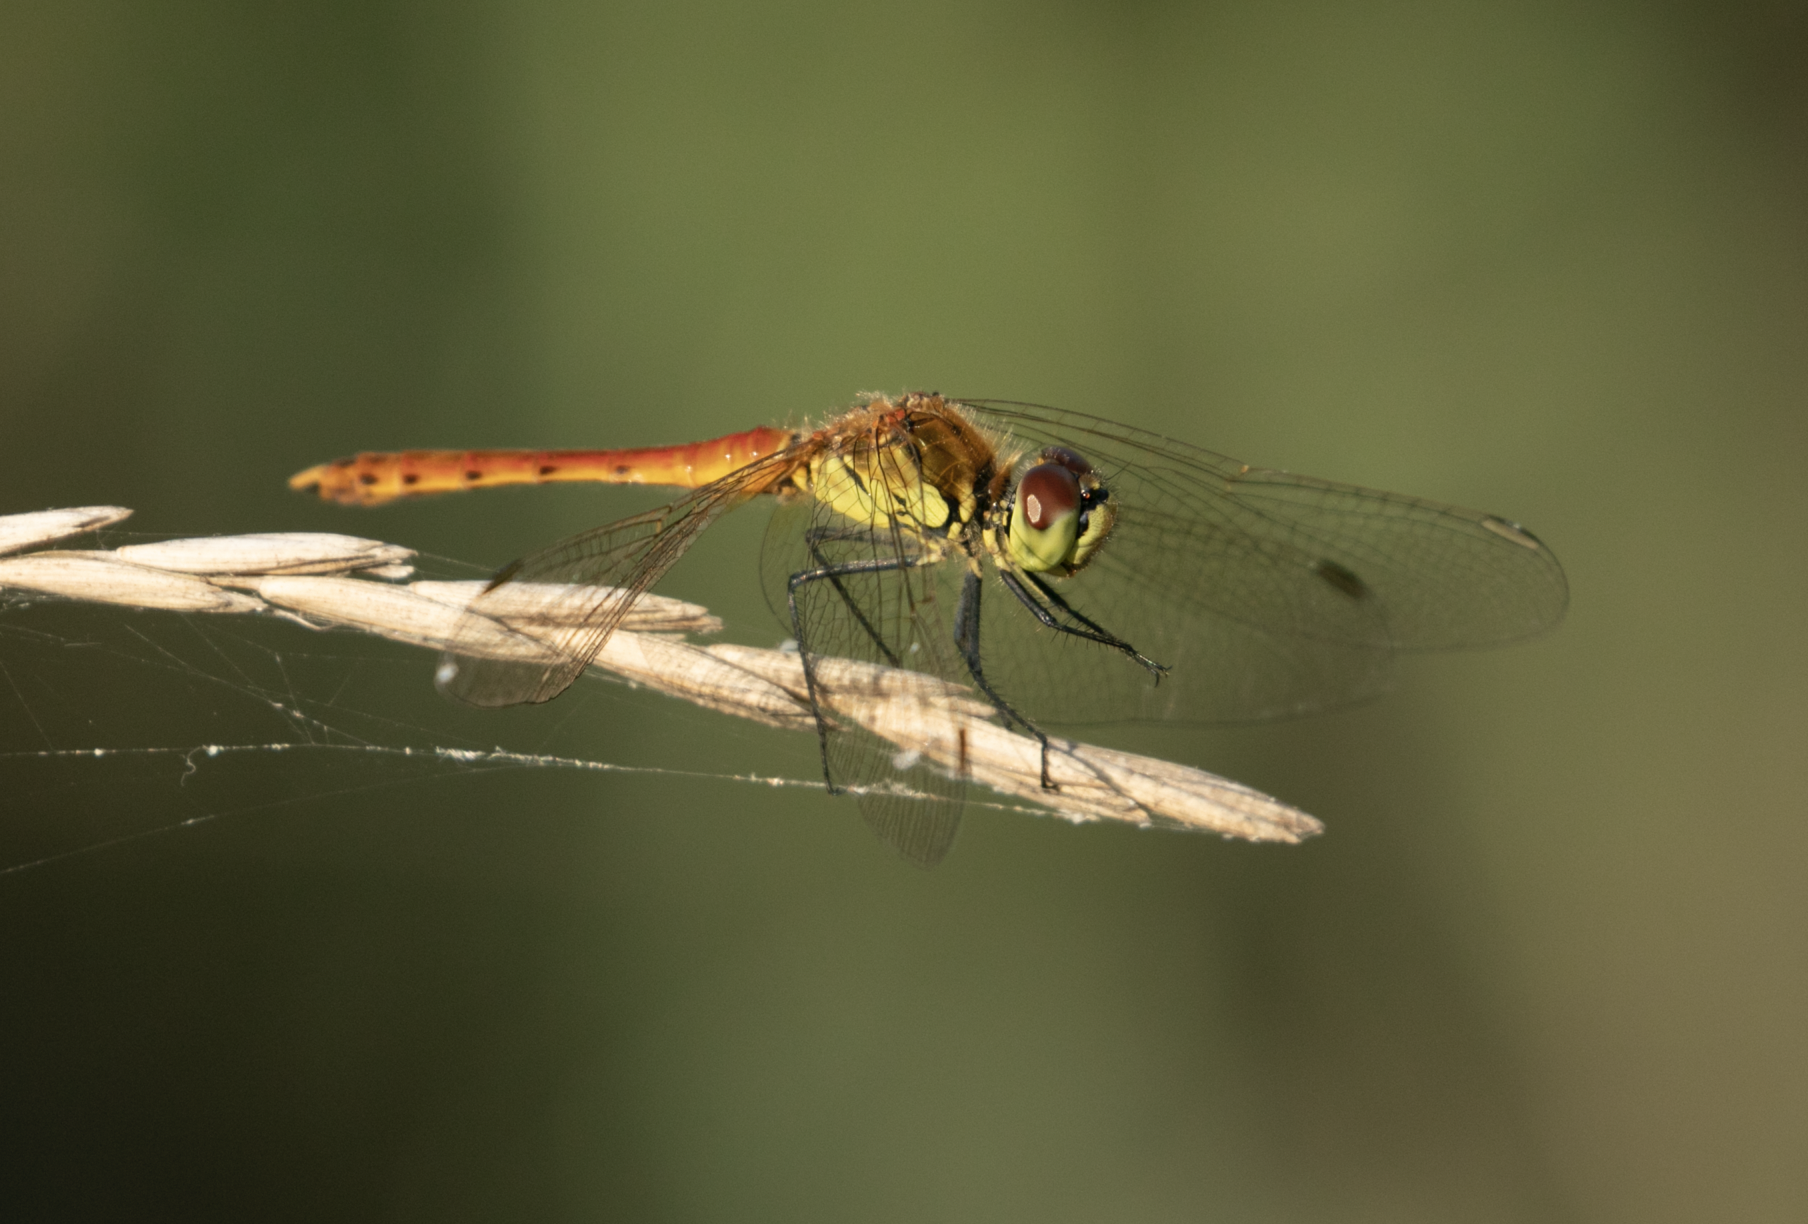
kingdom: Animalia
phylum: Arthropoda
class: Insecta
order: Odonata
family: Libellulidae
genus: Sympetrum
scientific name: Sympetrum depressiusculum
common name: Spotted darter
